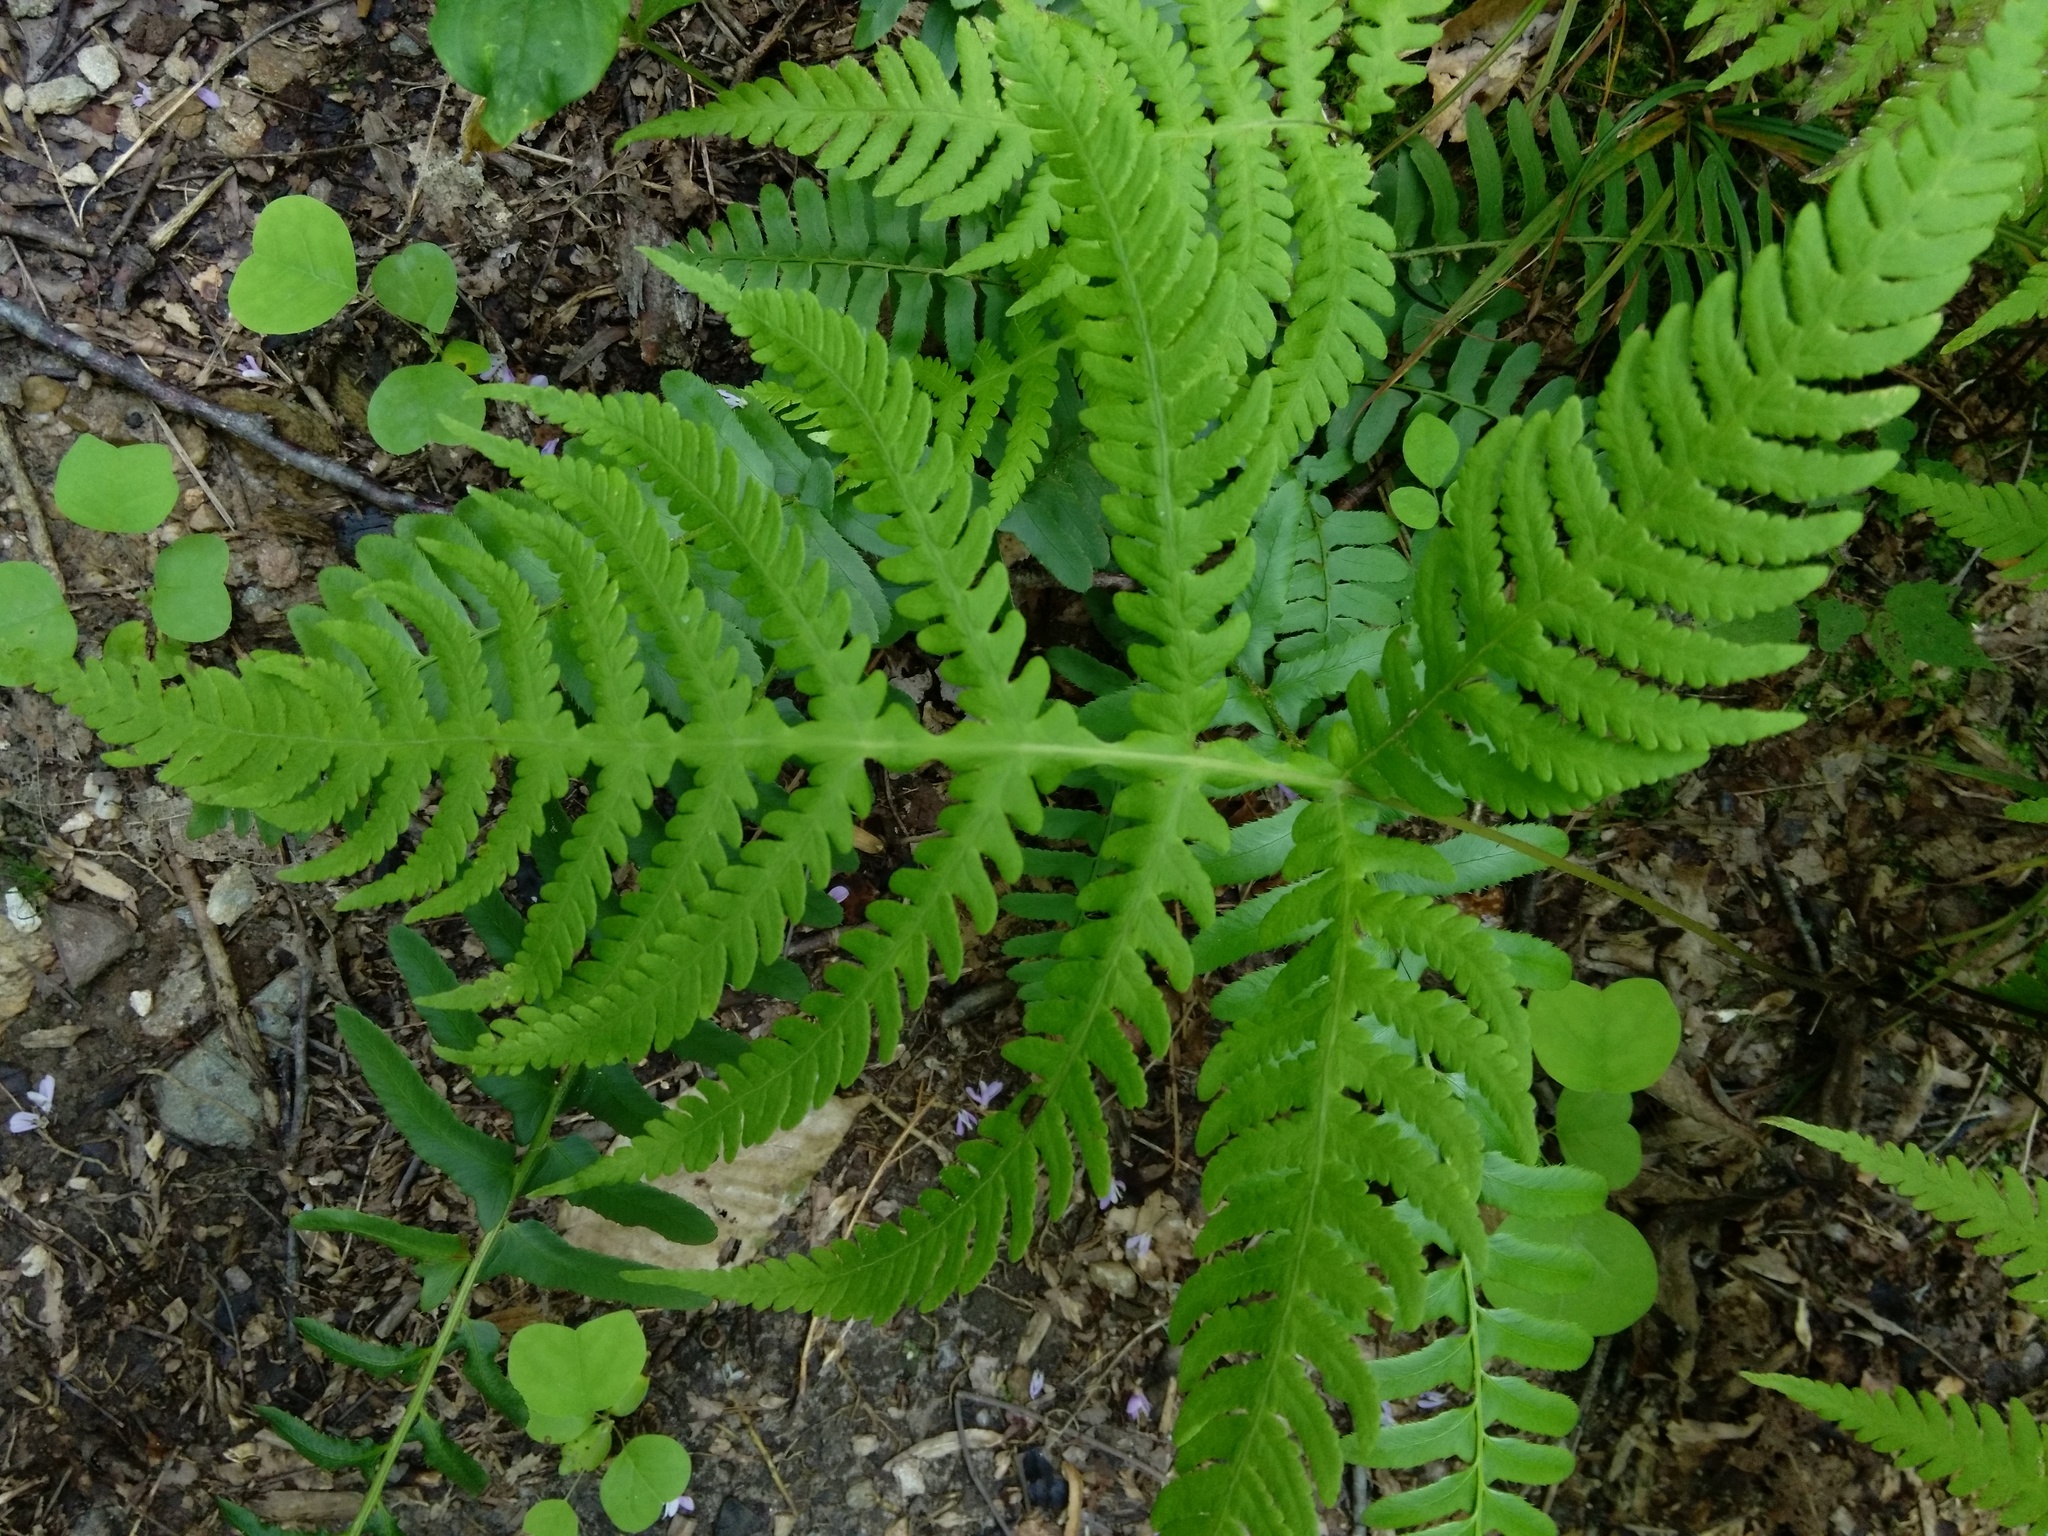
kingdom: Plantae
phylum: Tracheophyta
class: Polypodiopsida
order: Polypodiales
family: Thelypteridaceae
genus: Phegopteris
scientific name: Phegopteris hexagonoptera
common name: Broad beech fern
